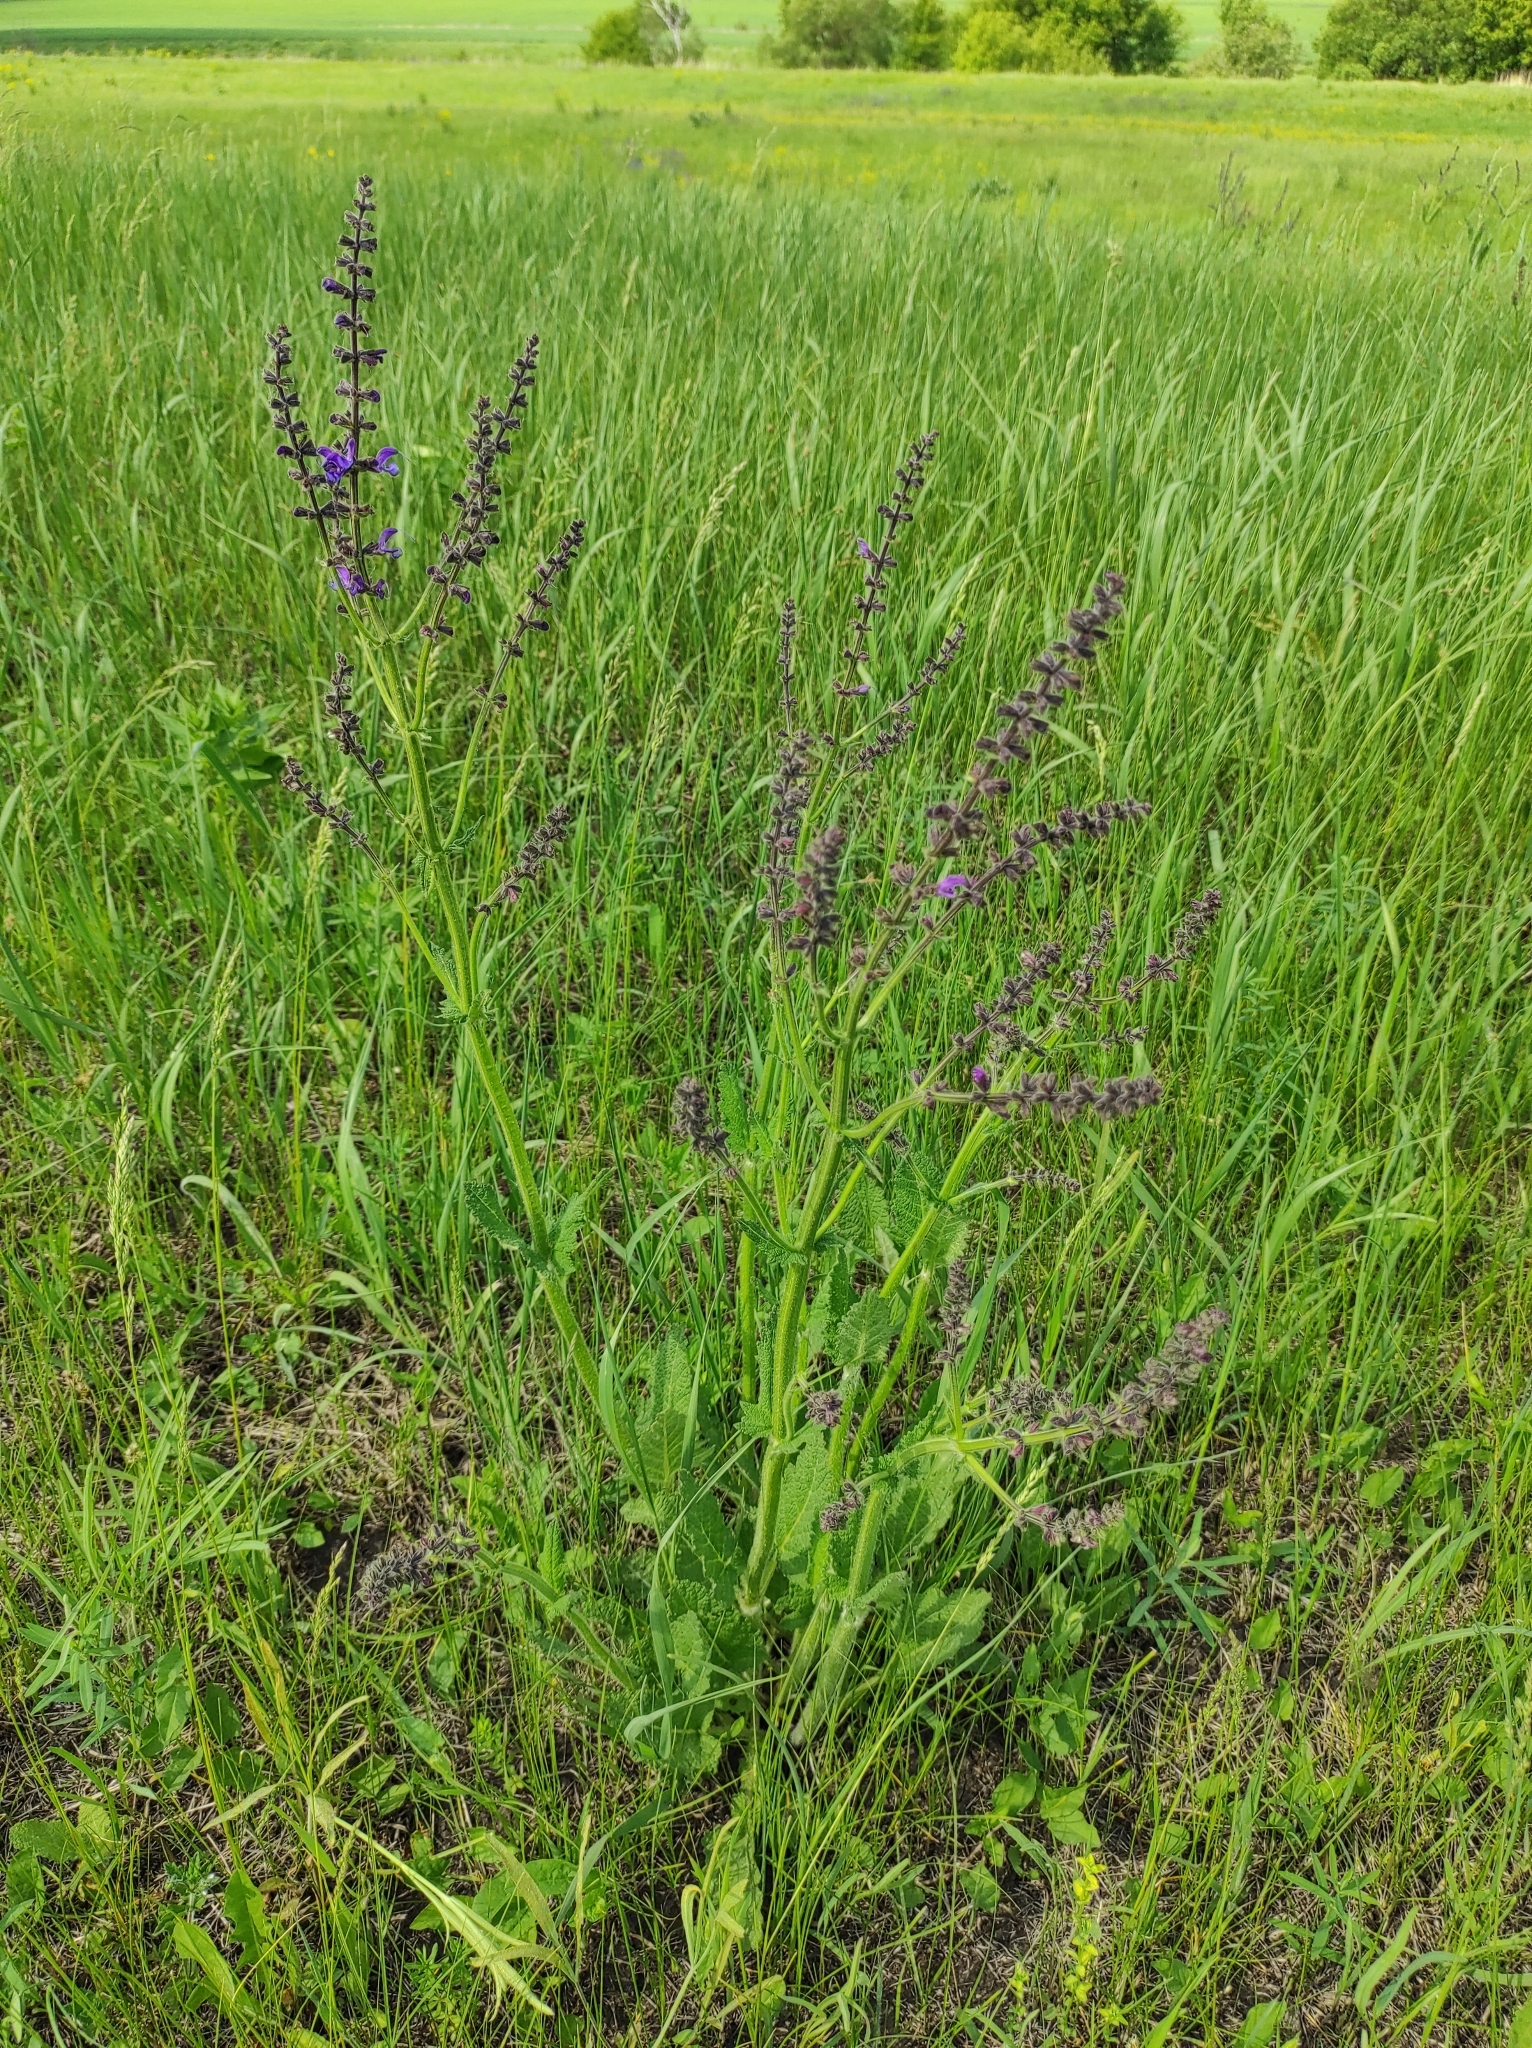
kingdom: Plantae
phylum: Tracheophyta
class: Magnoliopsida
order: Lamiales
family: Lamiaceae
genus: Salvia
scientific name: Salvia pratensis
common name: Meadow sage
